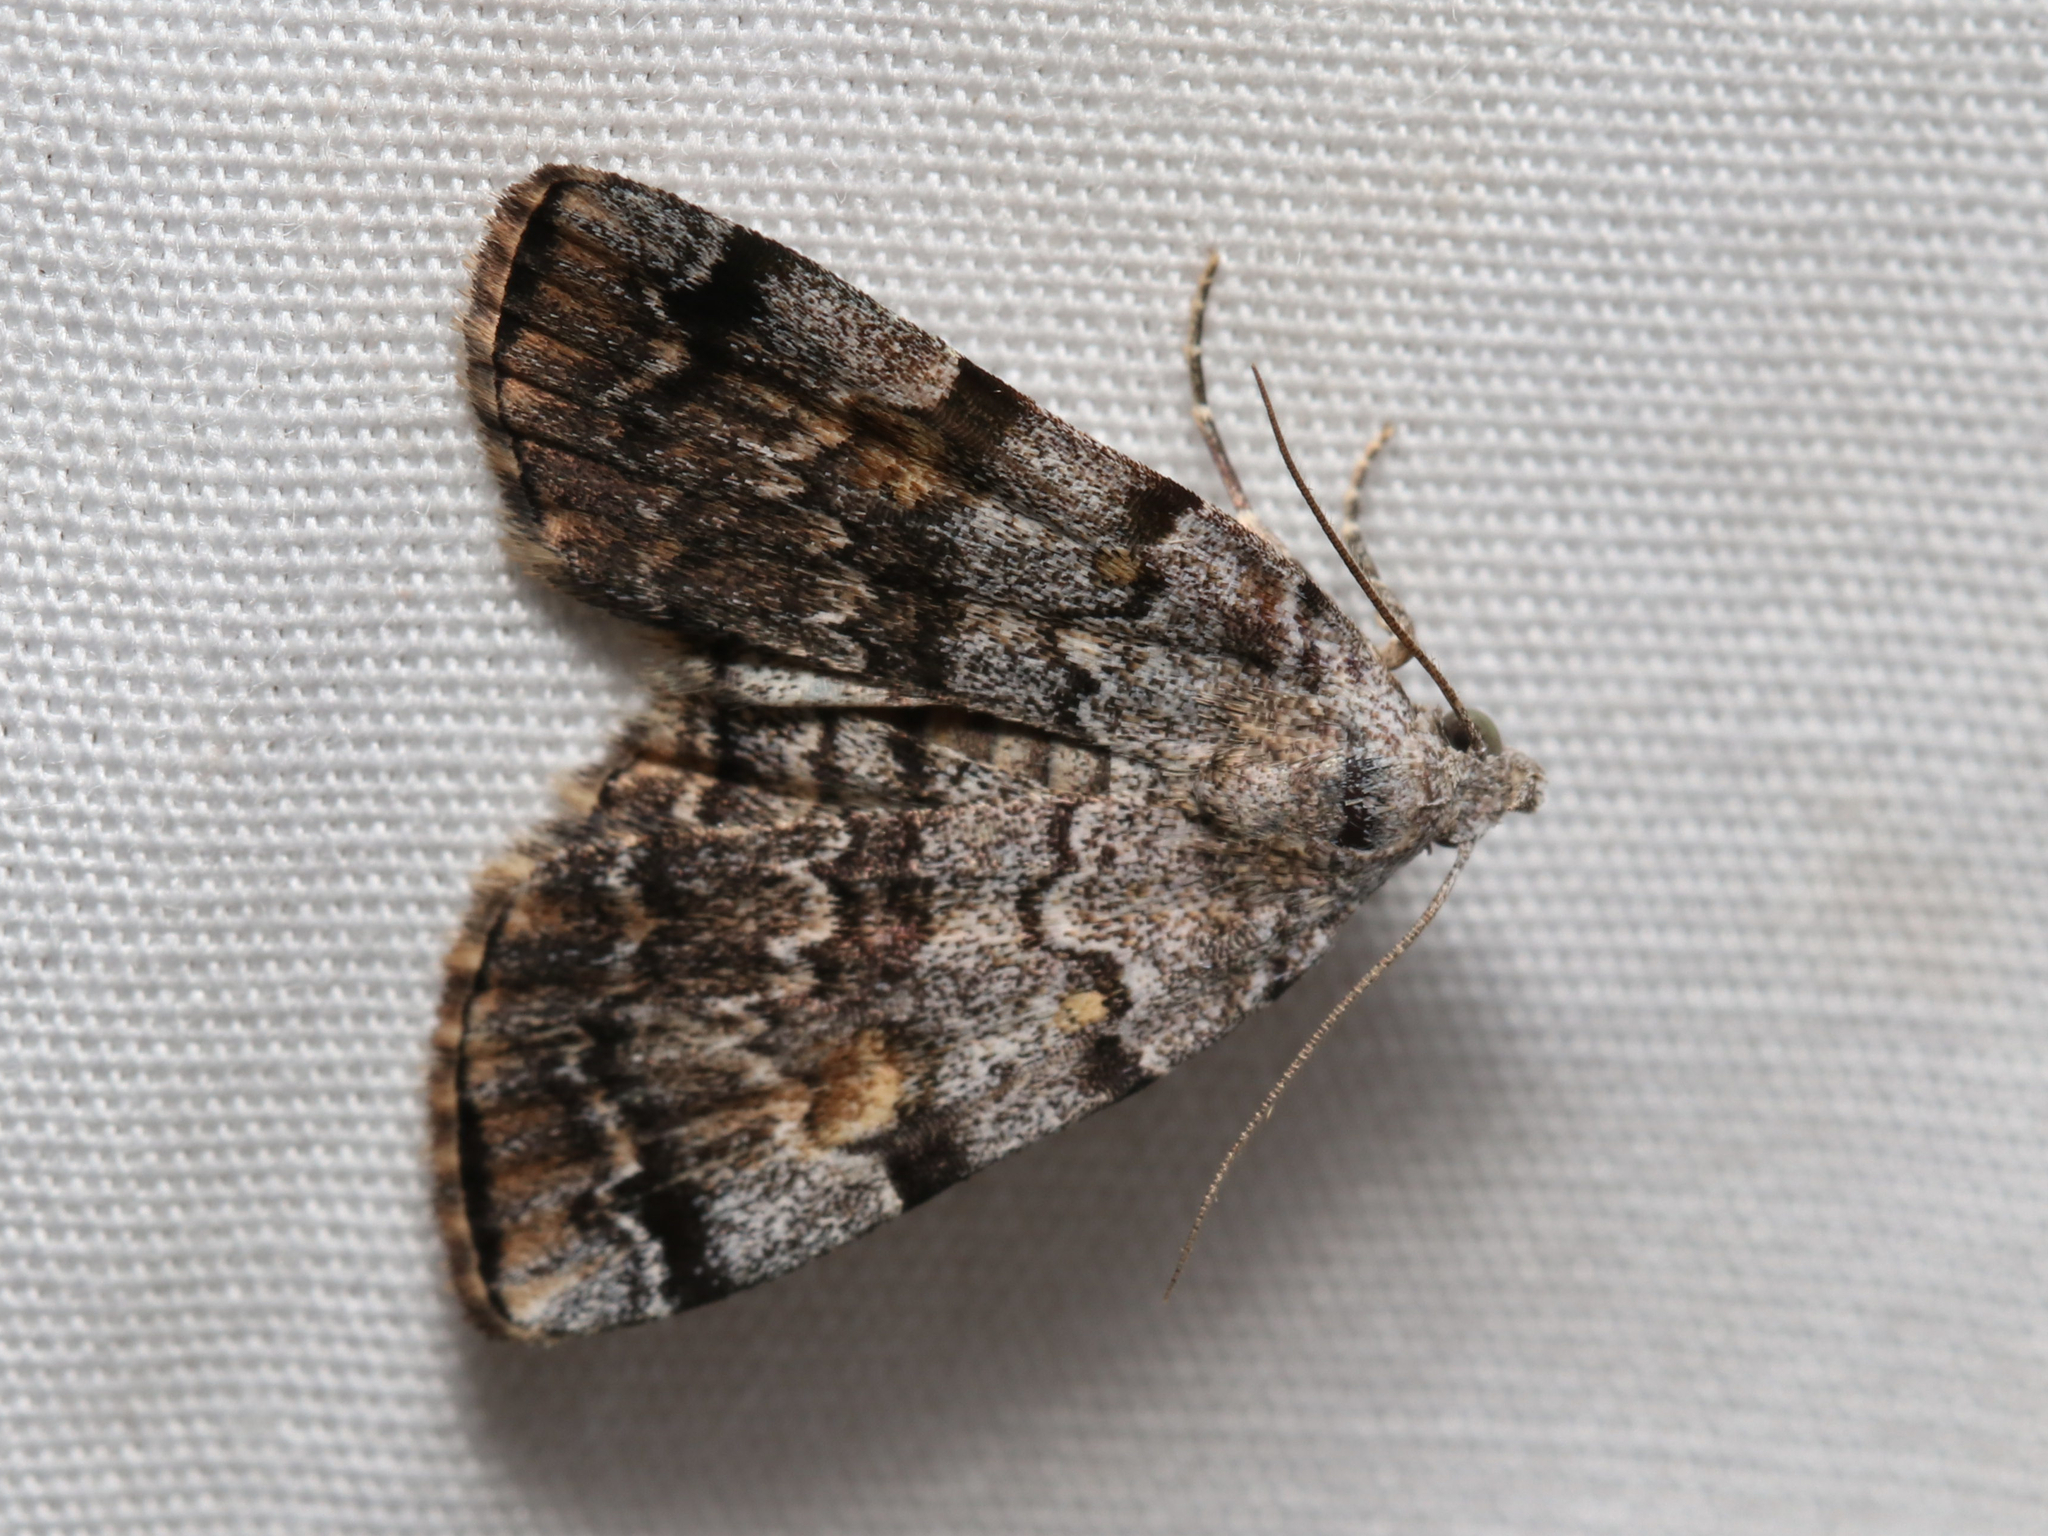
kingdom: Animalia
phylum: Arthropoda
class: Insecta
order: Lepidoptera
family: Erebidae
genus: Idia
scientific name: Idia americalis
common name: American idia moth
